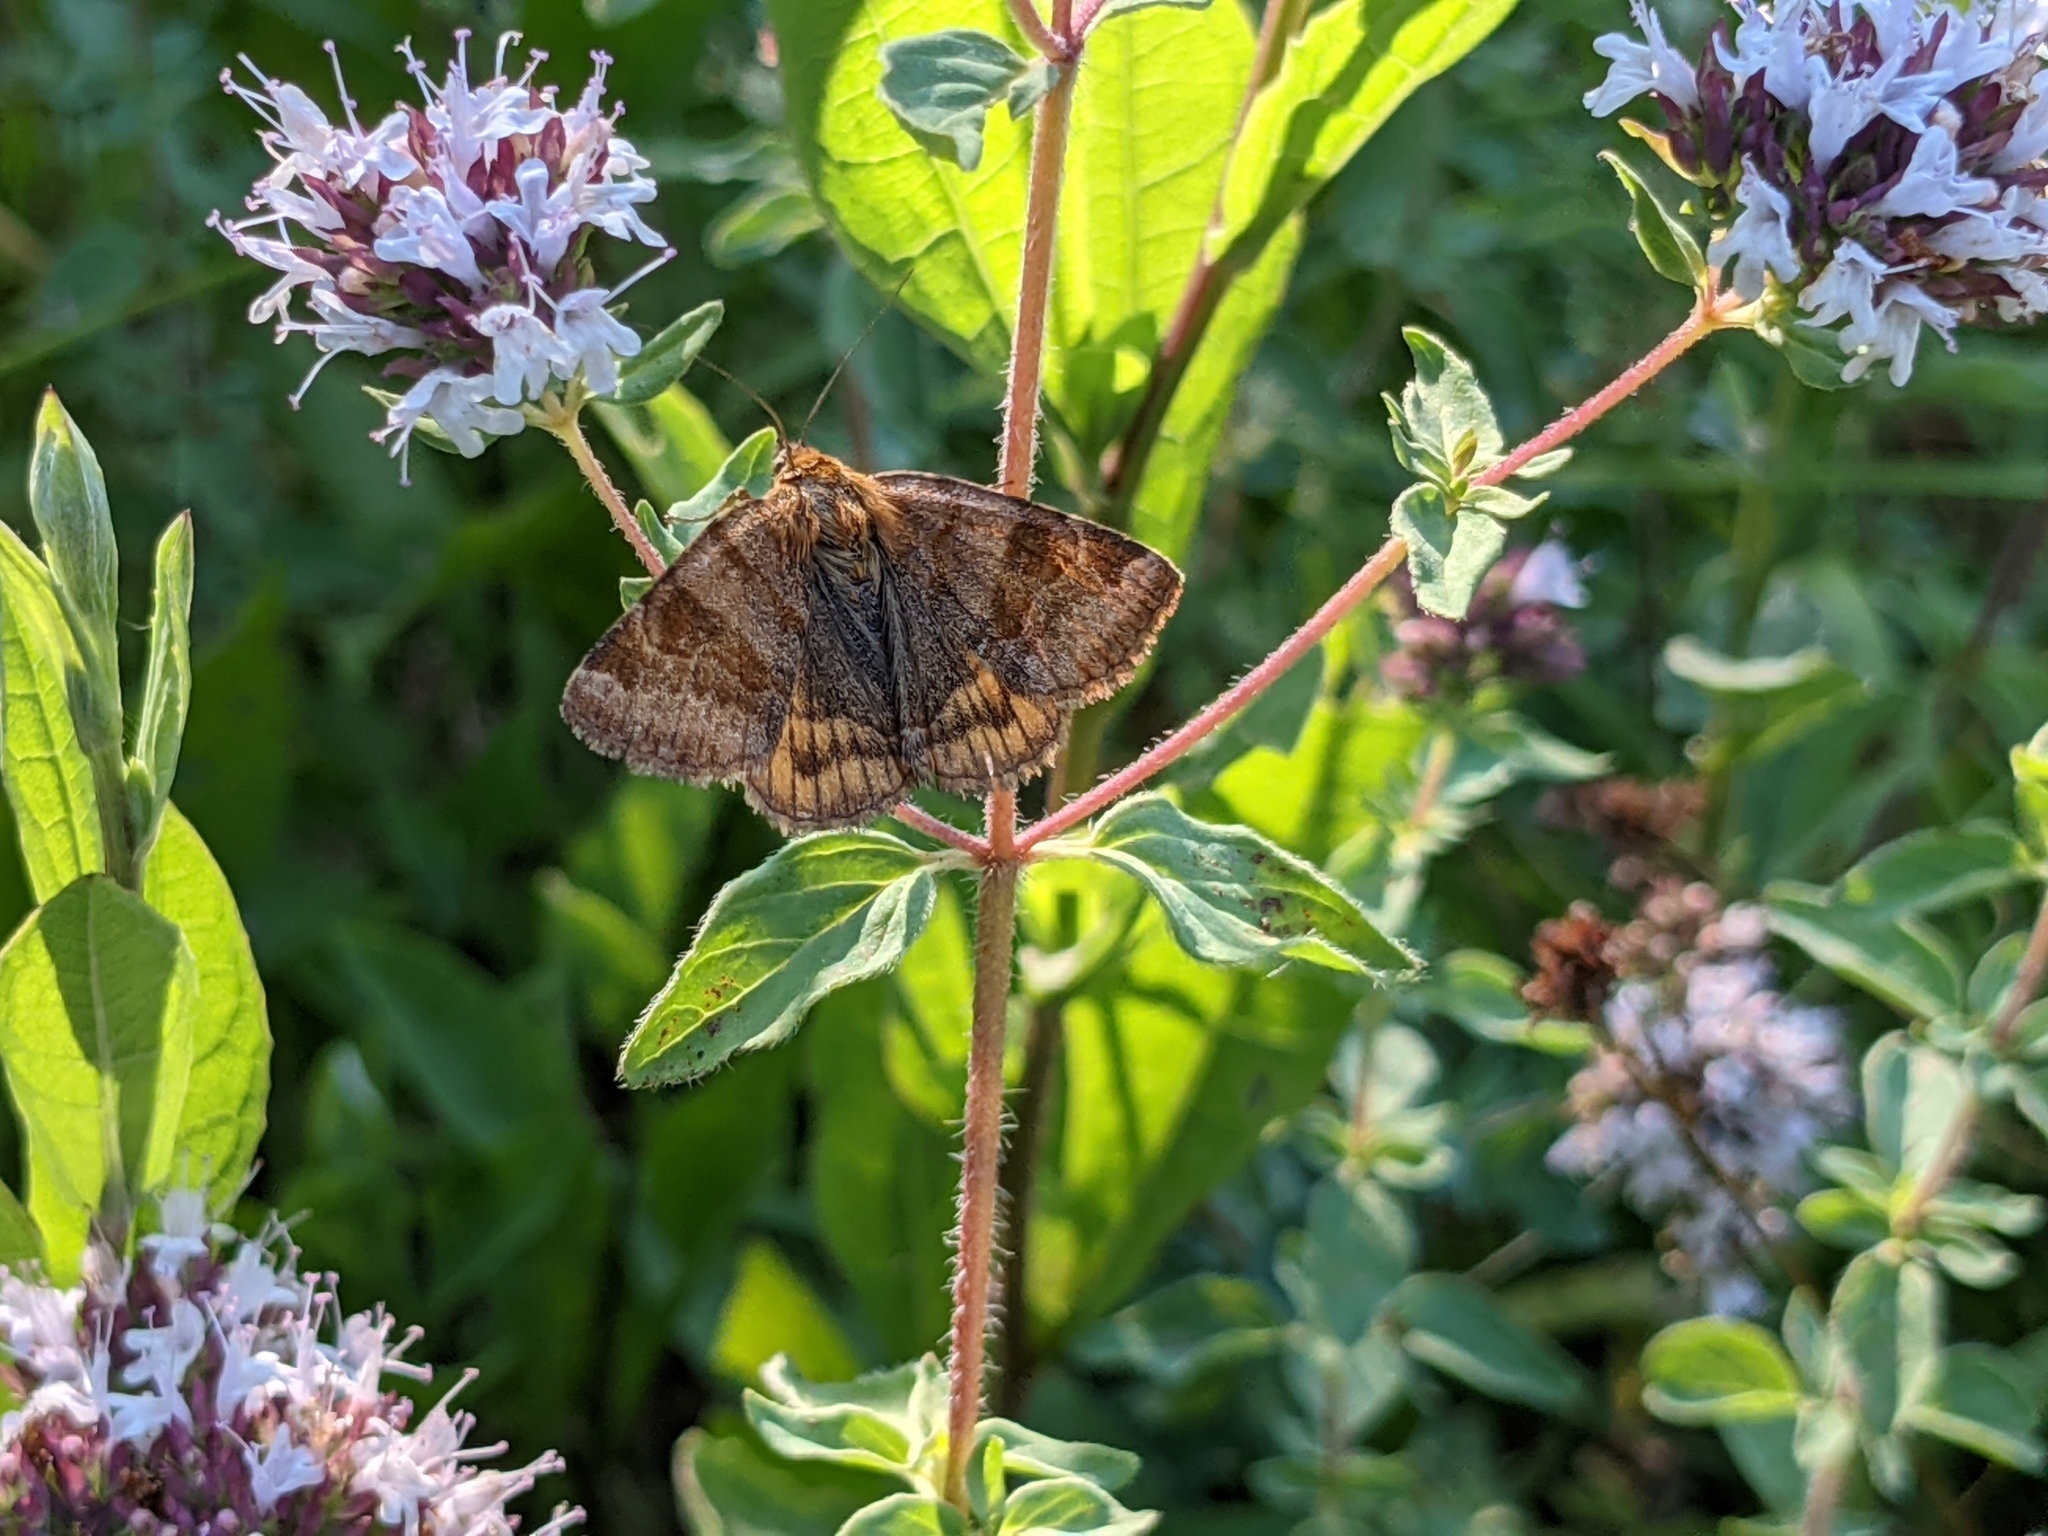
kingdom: Animalia
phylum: Arthropoda
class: Insecta
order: Lepidoptera
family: Erebidae
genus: Euclidia
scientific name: Euclidia glyphica
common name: Burnet companion
